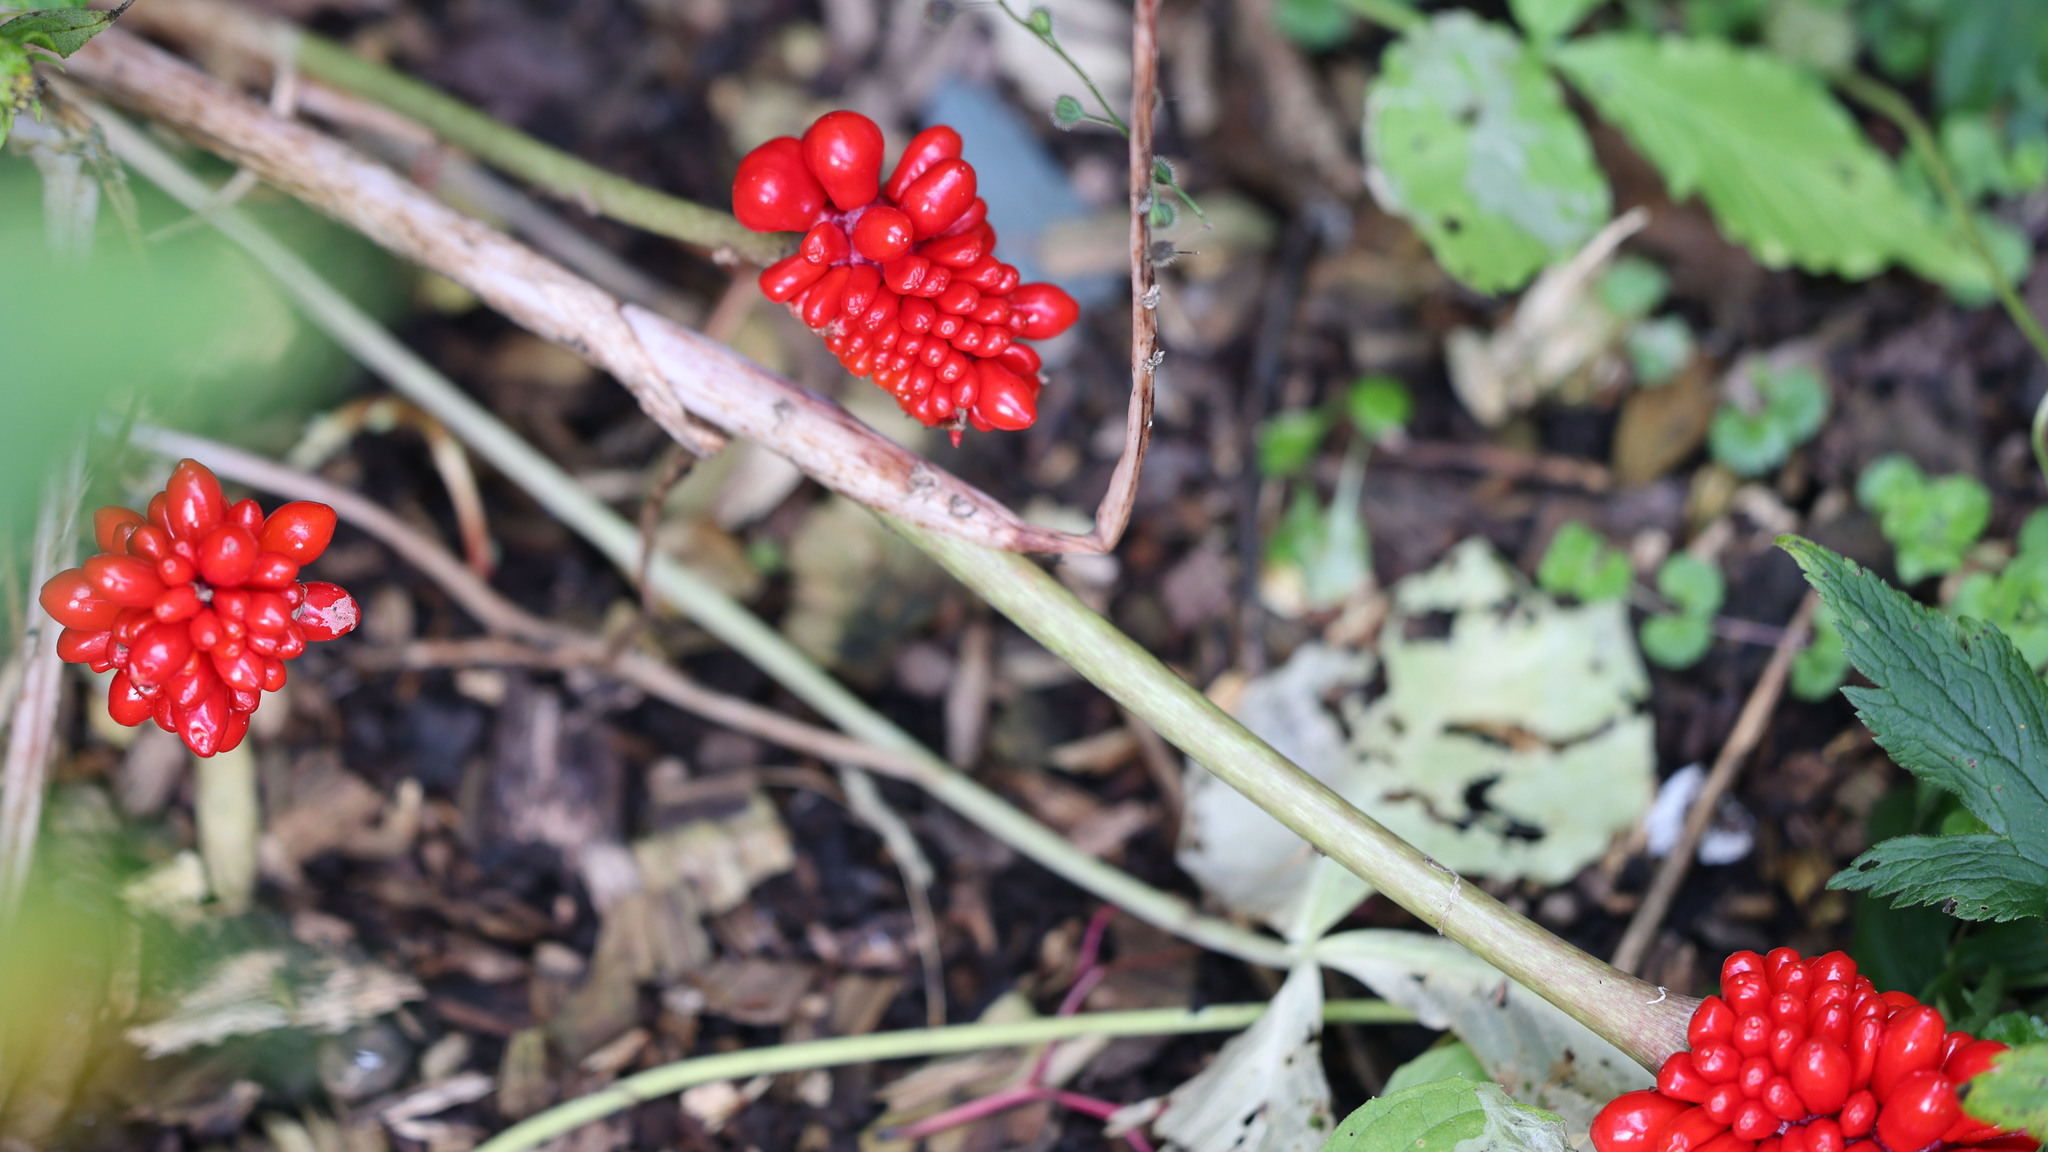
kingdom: Plantae
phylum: Tracheophyta
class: Liliopsida
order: Alismatales
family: Araceae
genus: Arisaema
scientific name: Arisaema triphyllum
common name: Jack-in-the-pulpit
